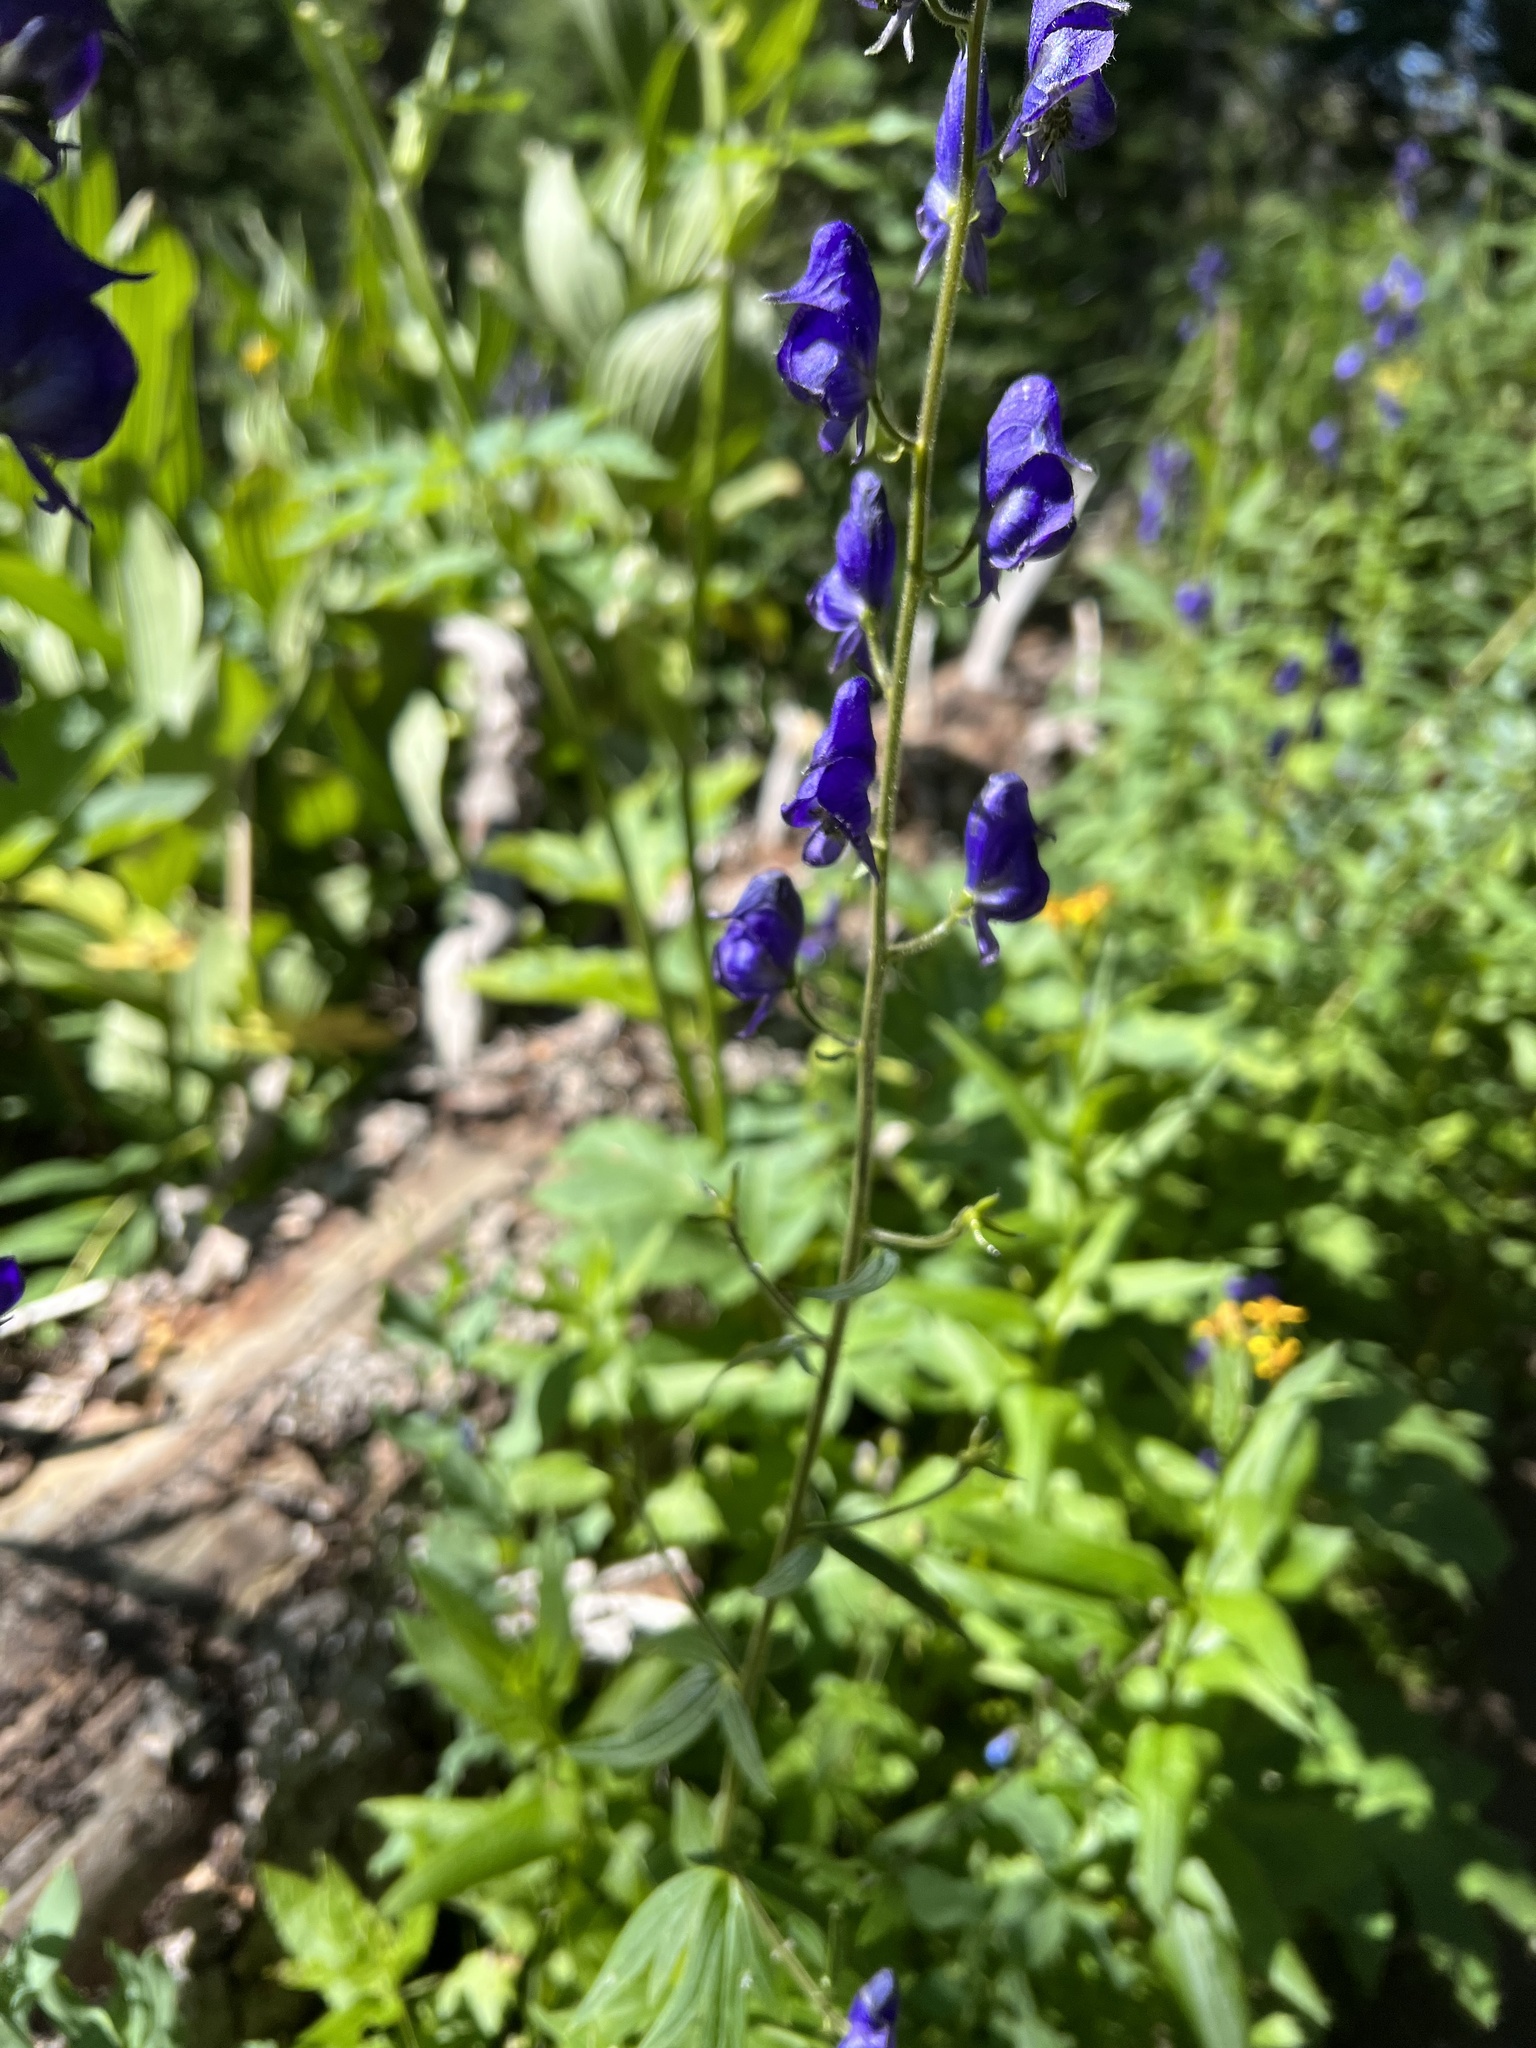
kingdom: Plantae
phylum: Tracheophyta
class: Magnoliopsida
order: Ranunculales
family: Ranunculaceae
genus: Aconitum
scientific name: Aconitum columbianum
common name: Columbia aconite
